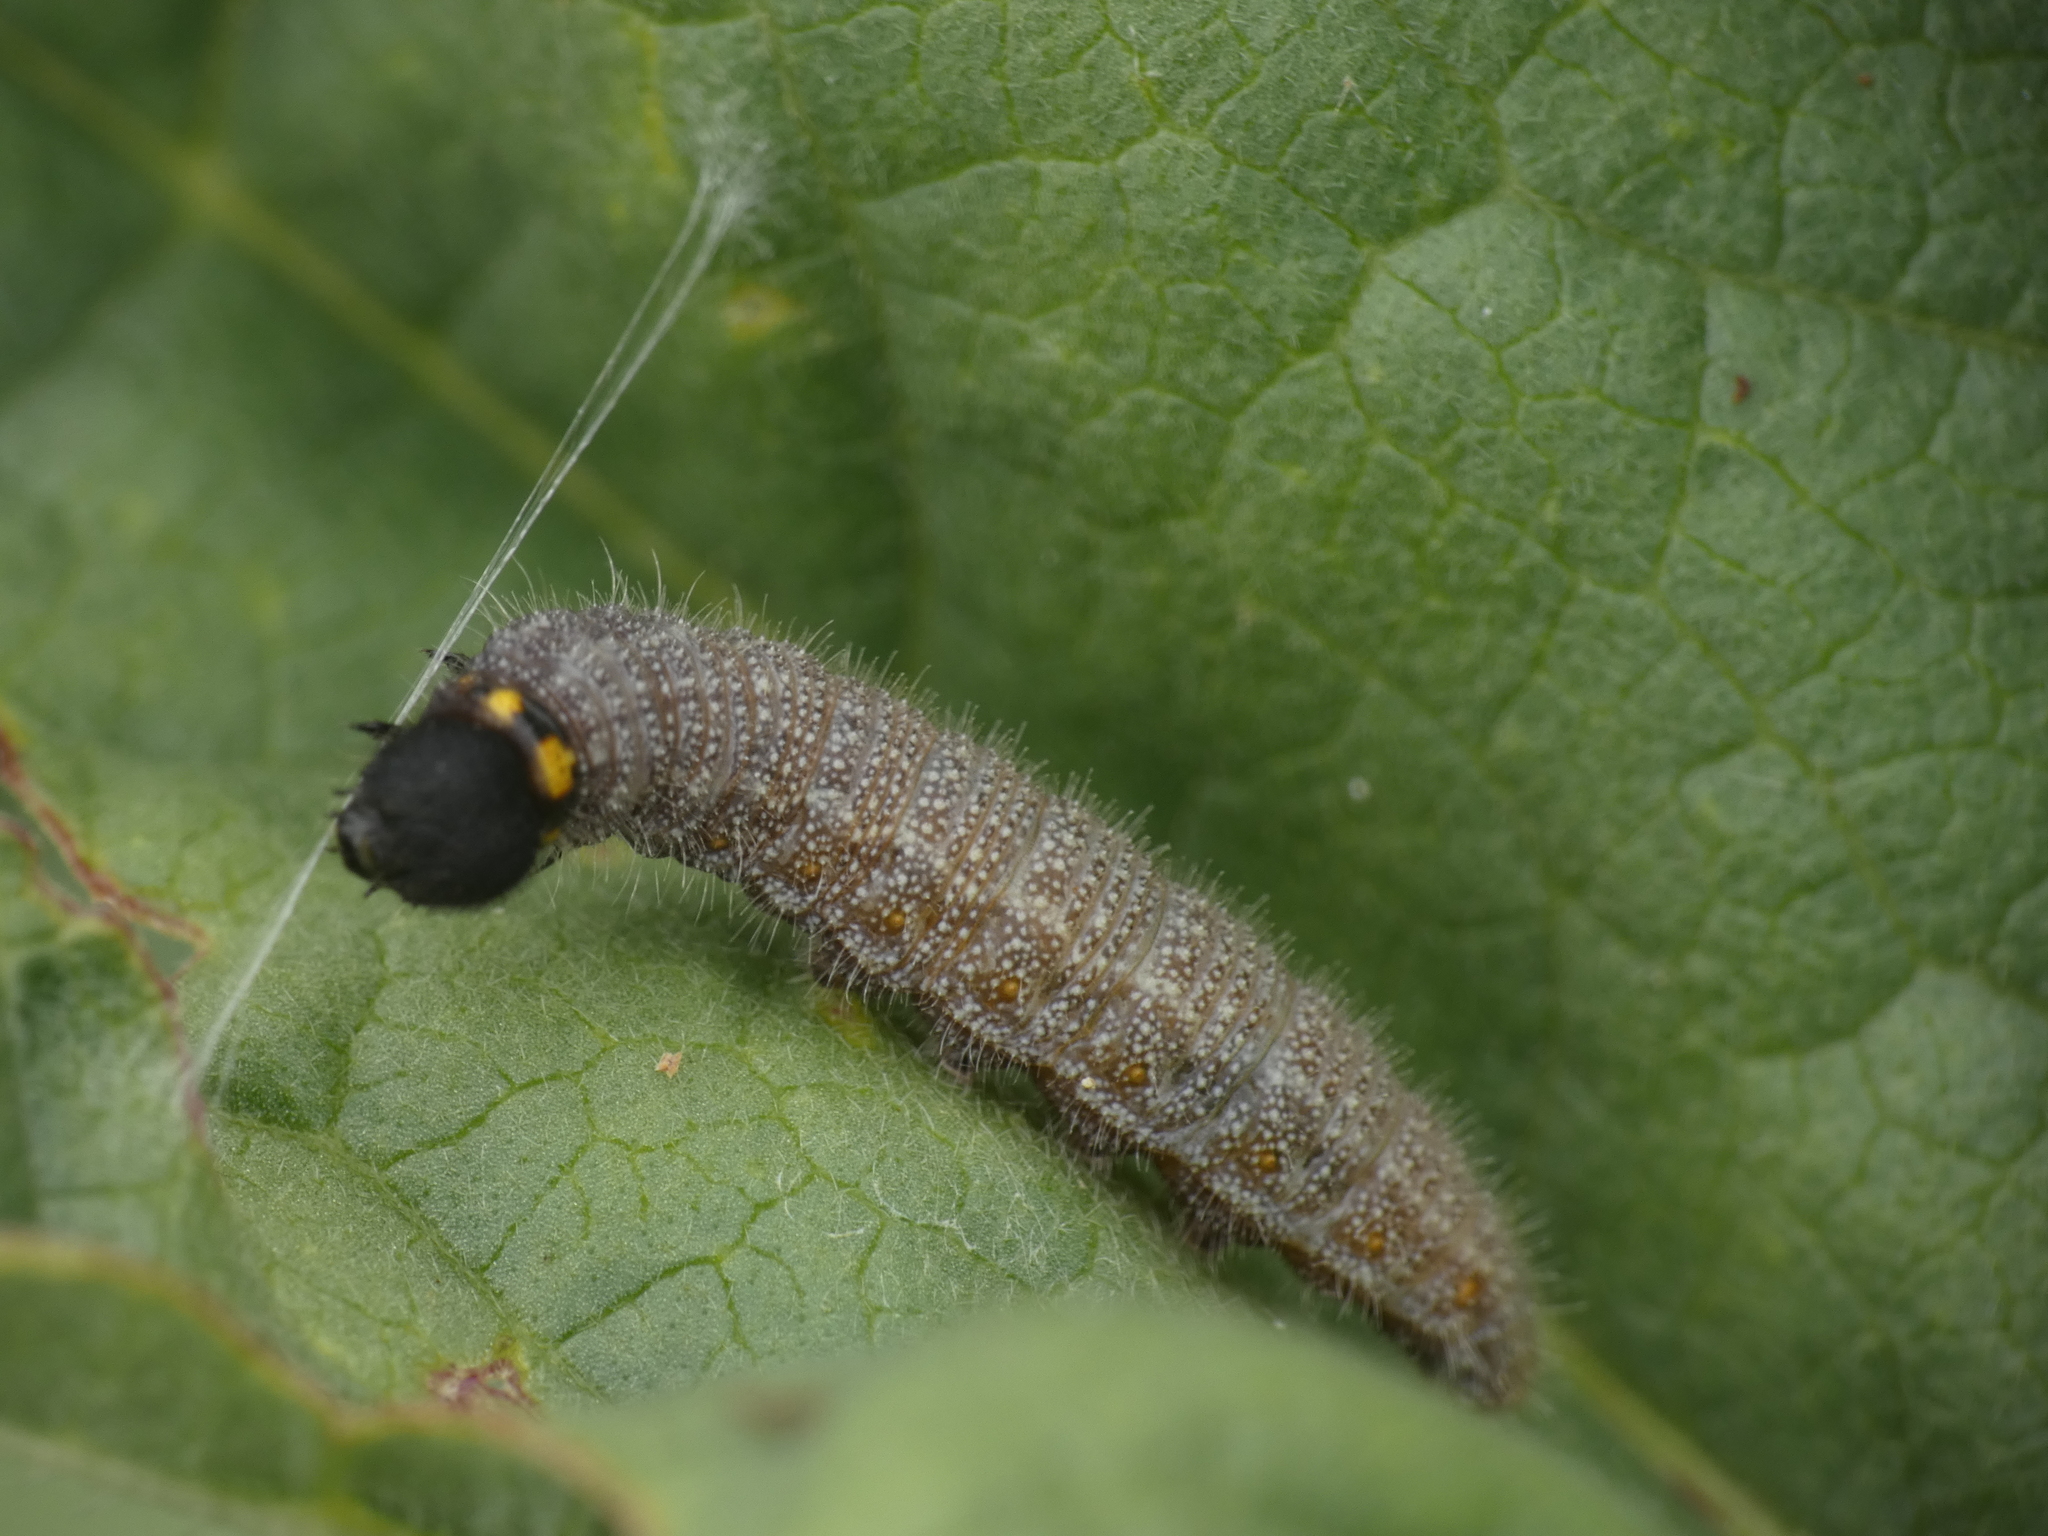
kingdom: Animalia
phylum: Arthropoda
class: Insecta
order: Lepidoptera
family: Hesperiidae
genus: Carcharodus
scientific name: Carcharodus alceae
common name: Mallow skipper
